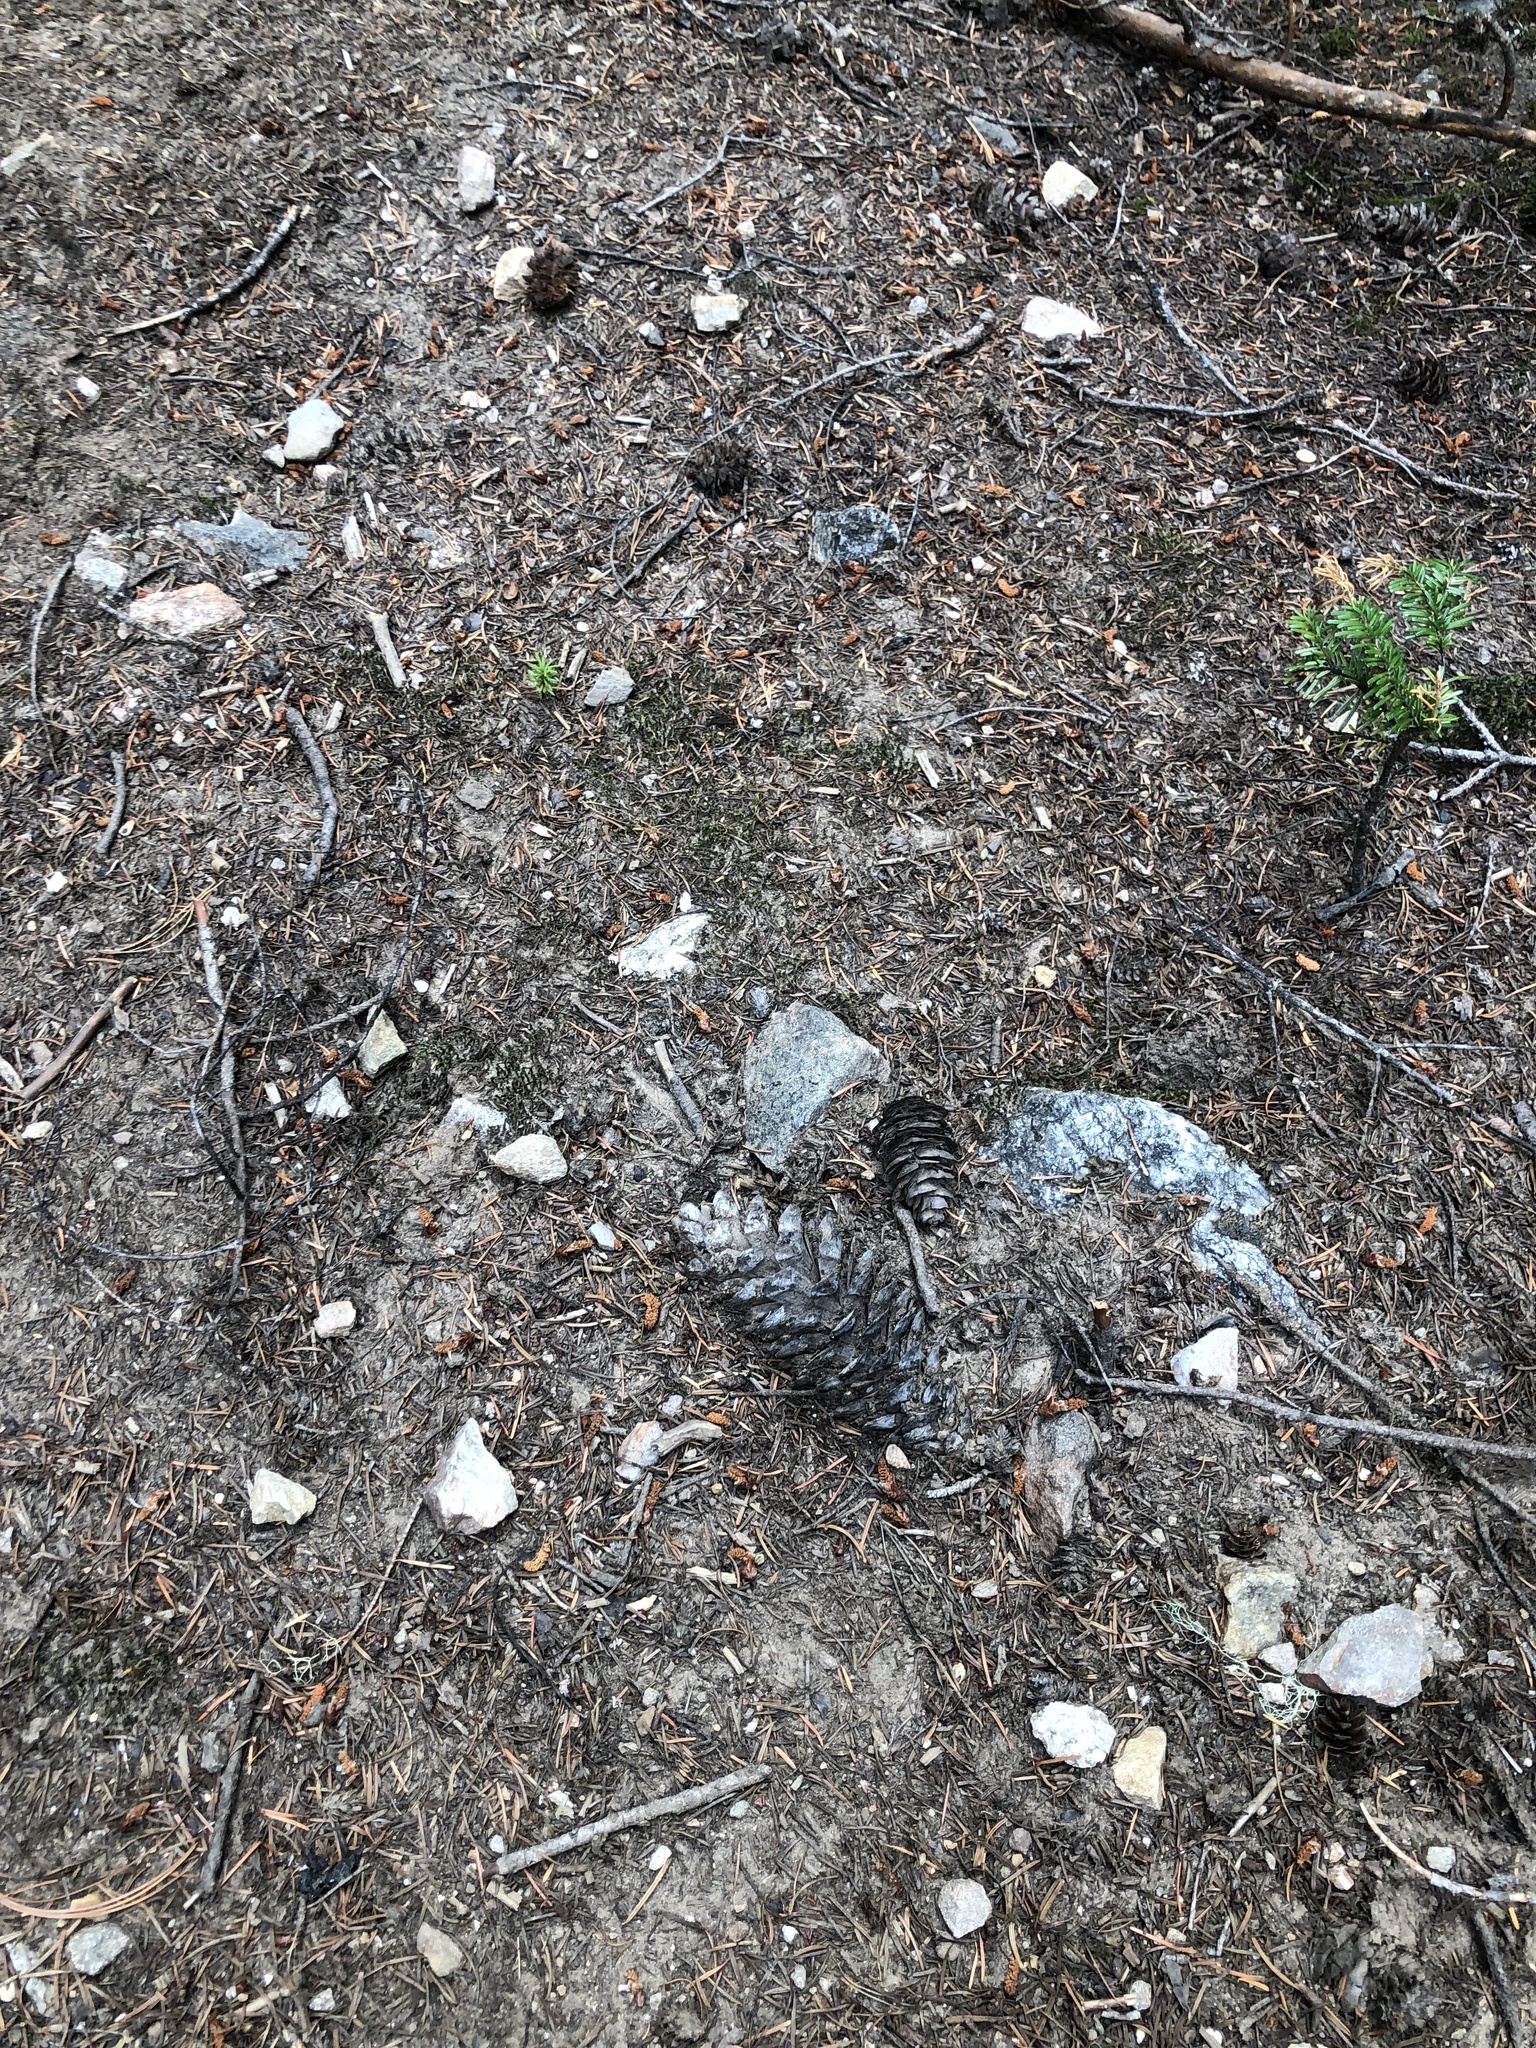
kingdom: Plantae
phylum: Tracheophyta
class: Pinopsida
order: Pinales
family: Pinaceae
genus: Pinus
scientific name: Pinus monticola
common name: Western white pine
